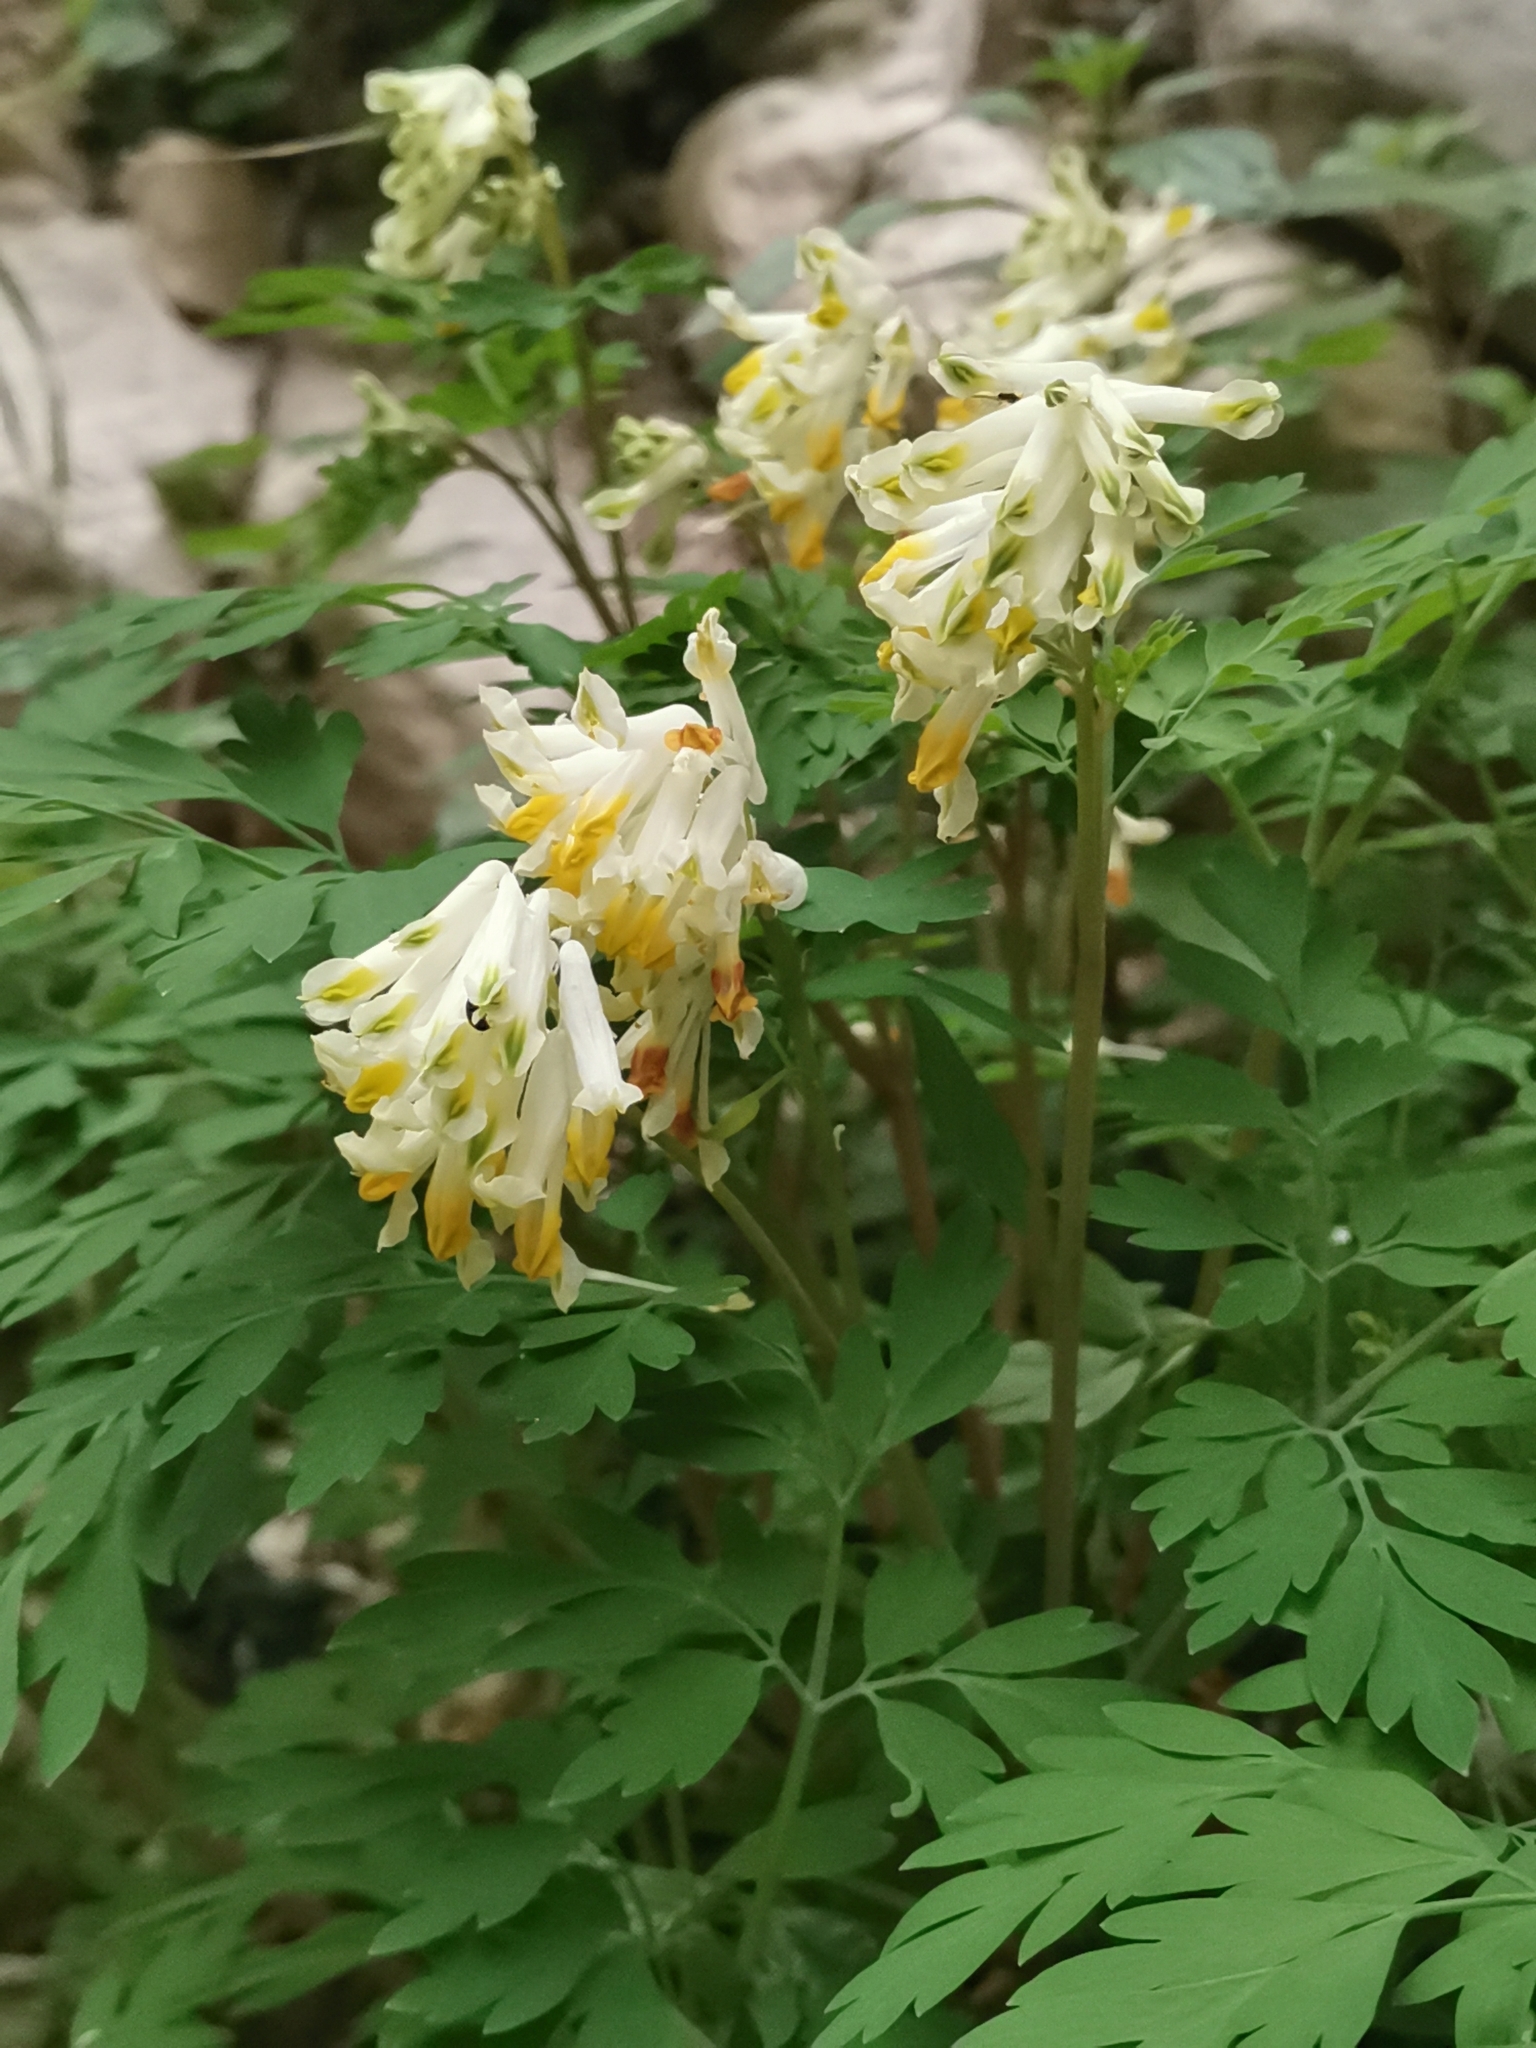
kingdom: Plantae
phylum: Tracheophyta
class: Magnoliopsida
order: Ranunculales
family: Papaveraceae
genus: Pseudofumaria
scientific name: Pseudofumaria alba
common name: Pale corydalis
